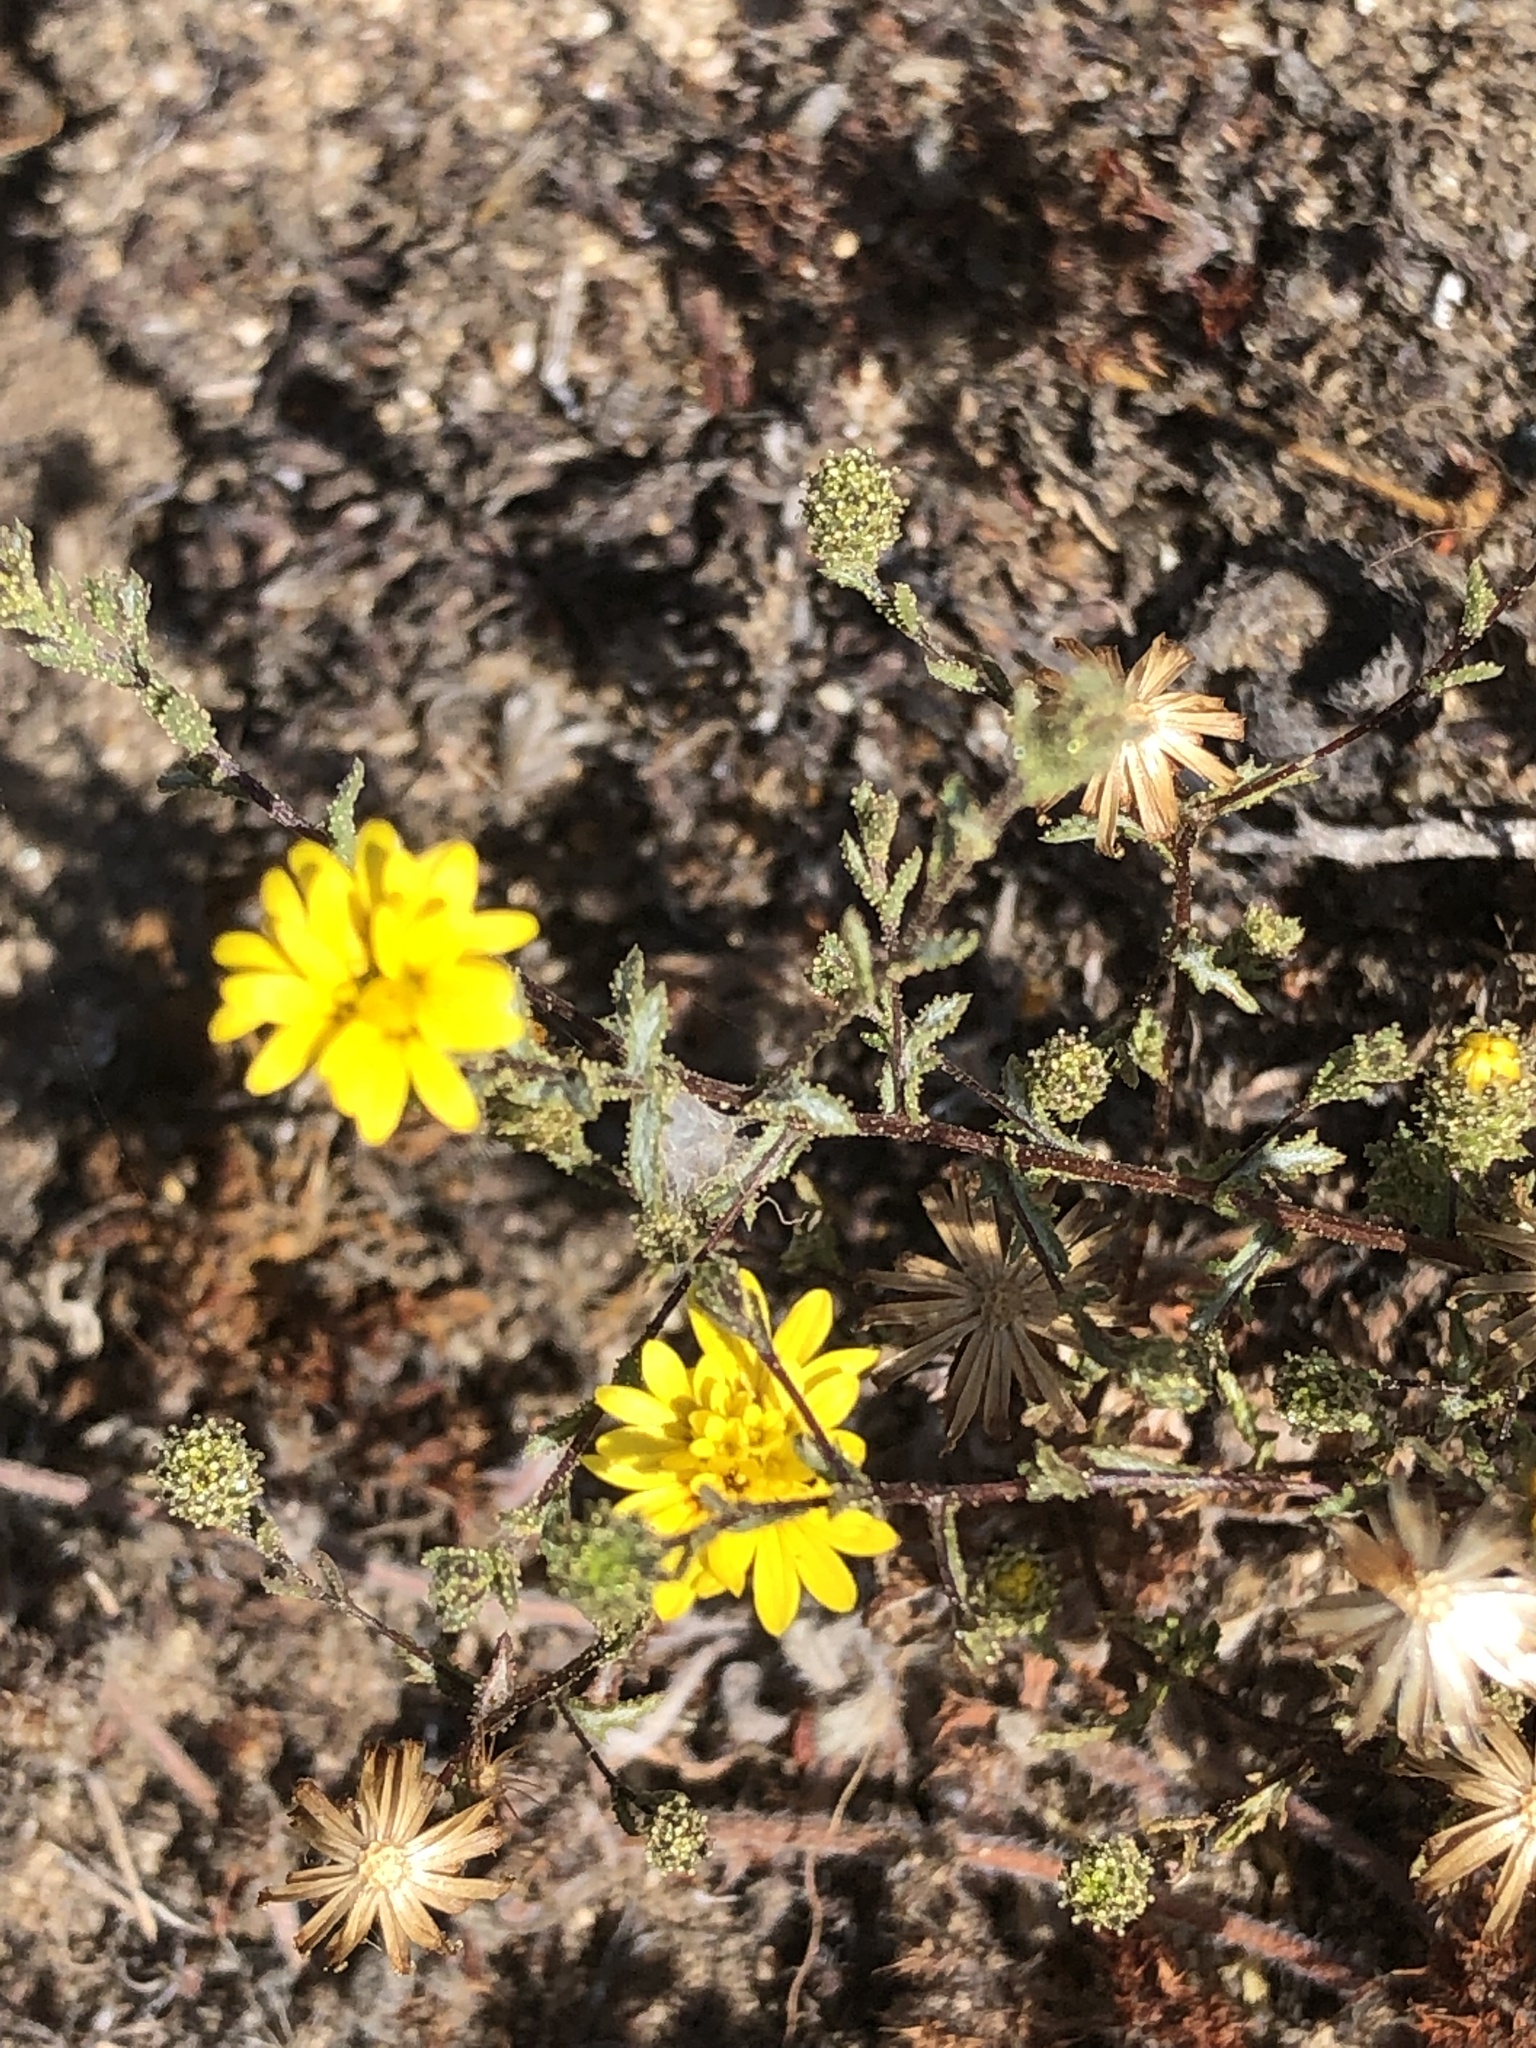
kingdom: Plantae
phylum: Tracheophyta
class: Magnoliopsida
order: Asterales
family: Asteraceae
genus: Lessingia
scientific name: Lessingia pectinata
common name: Valley lessingia
